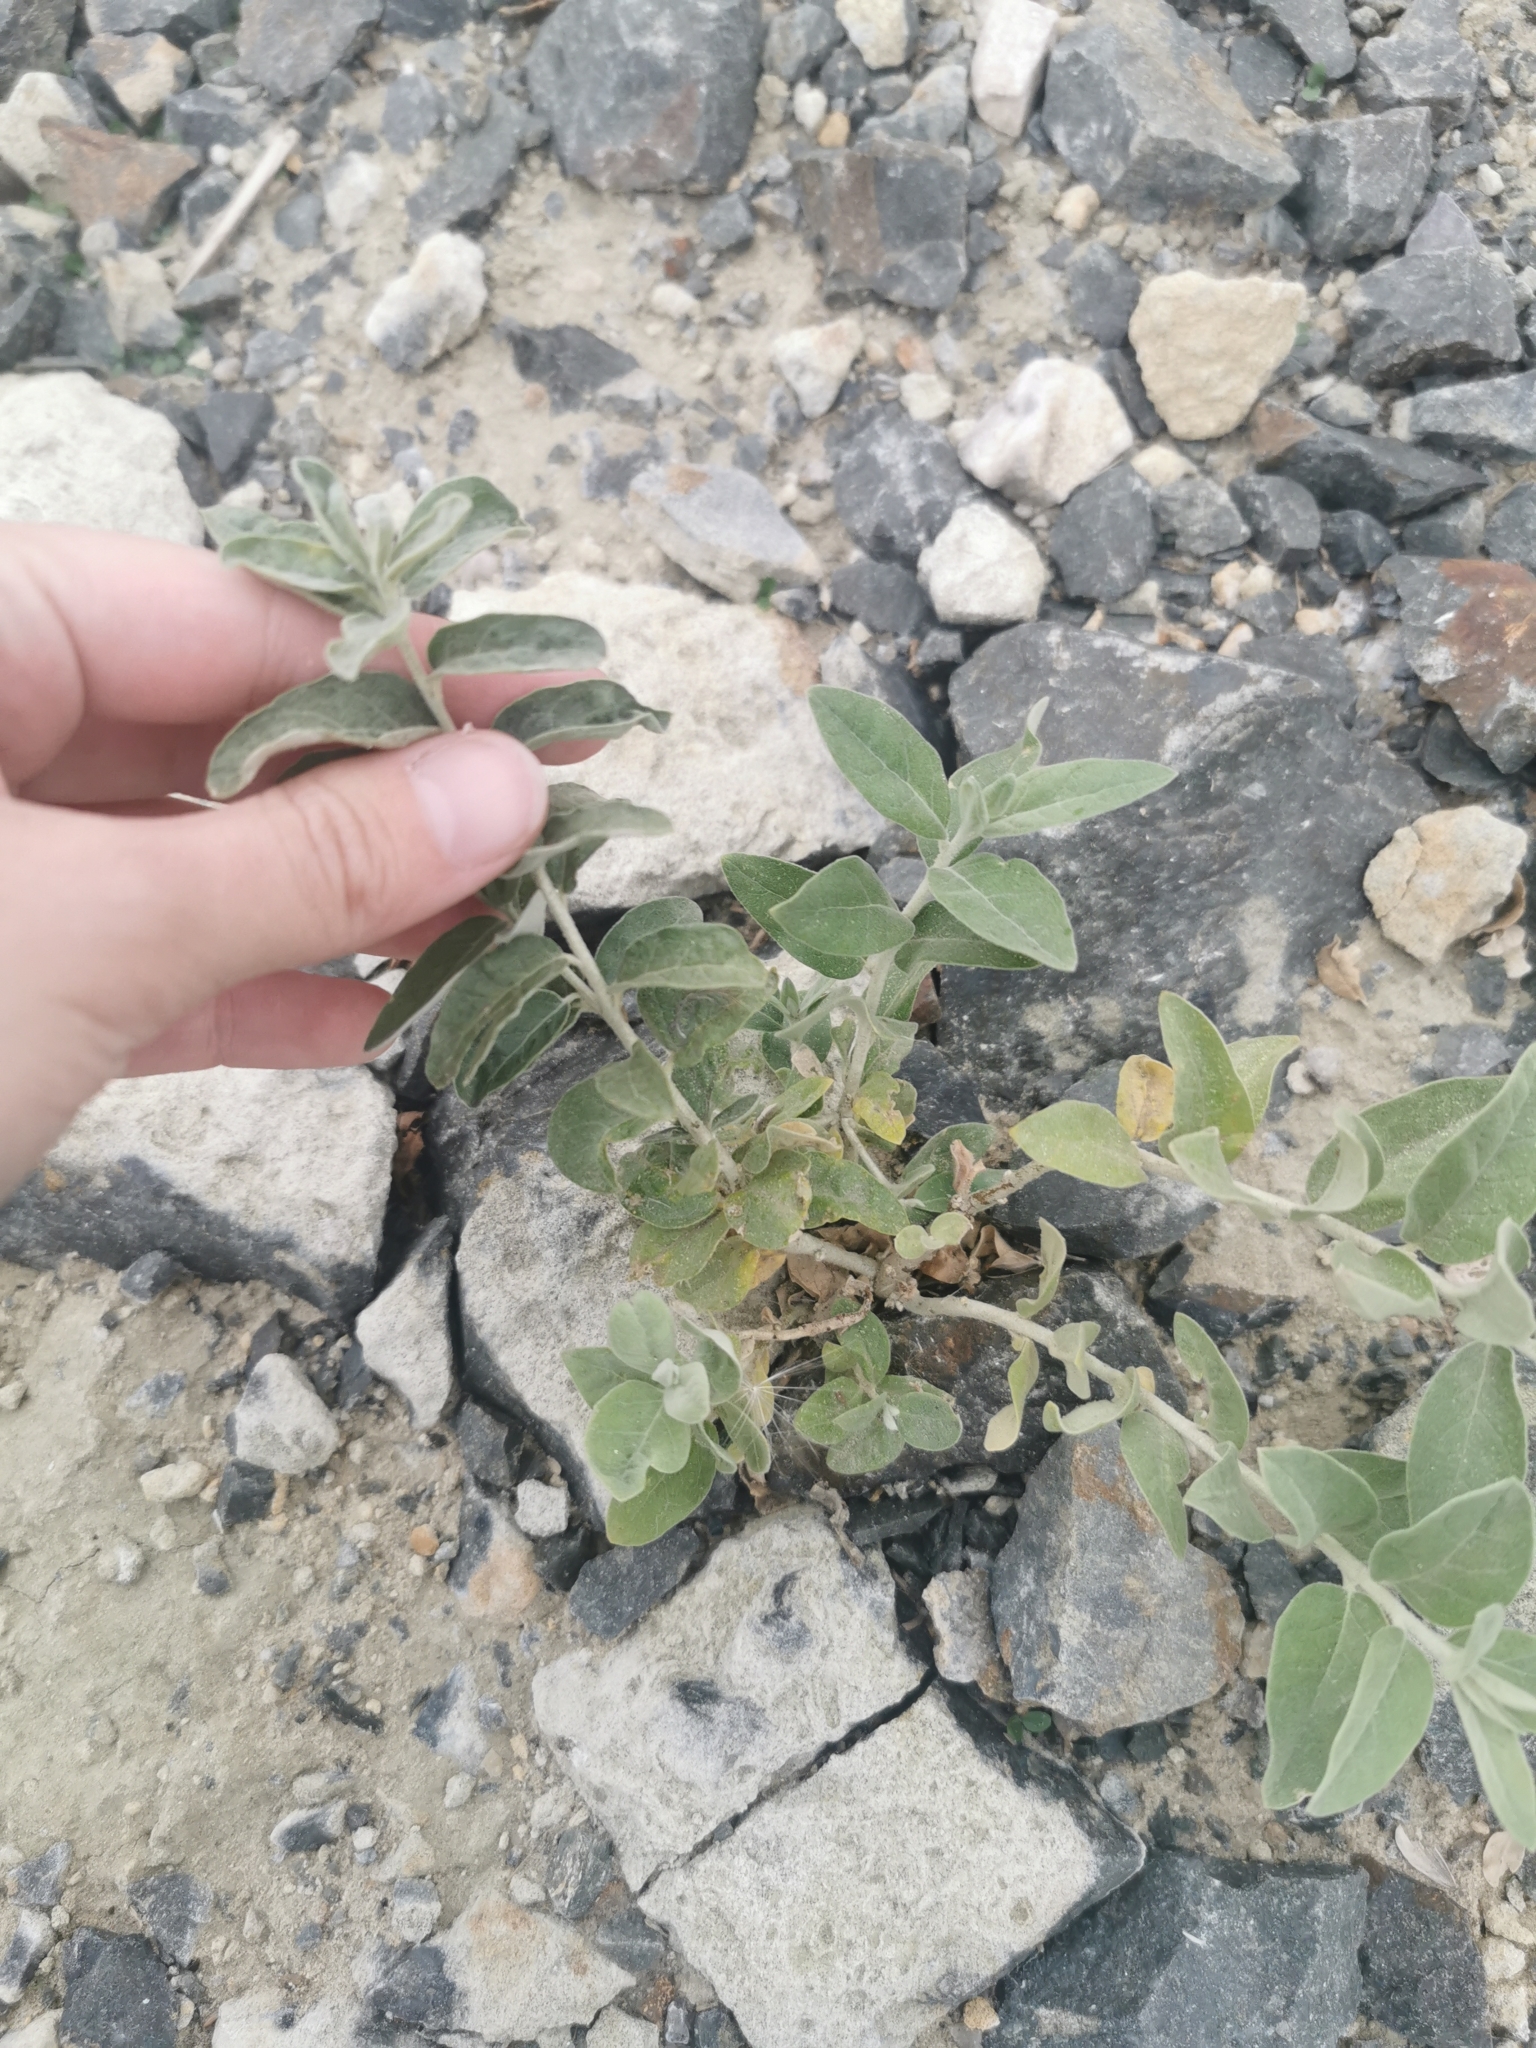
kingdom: Plantae
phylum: Tracheophyta
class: Magnoliopsida
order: Rosales
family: Elaeagnaceae
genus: Elaeagnus
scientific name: Elaeagnus angustifolia
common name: Russian olive
